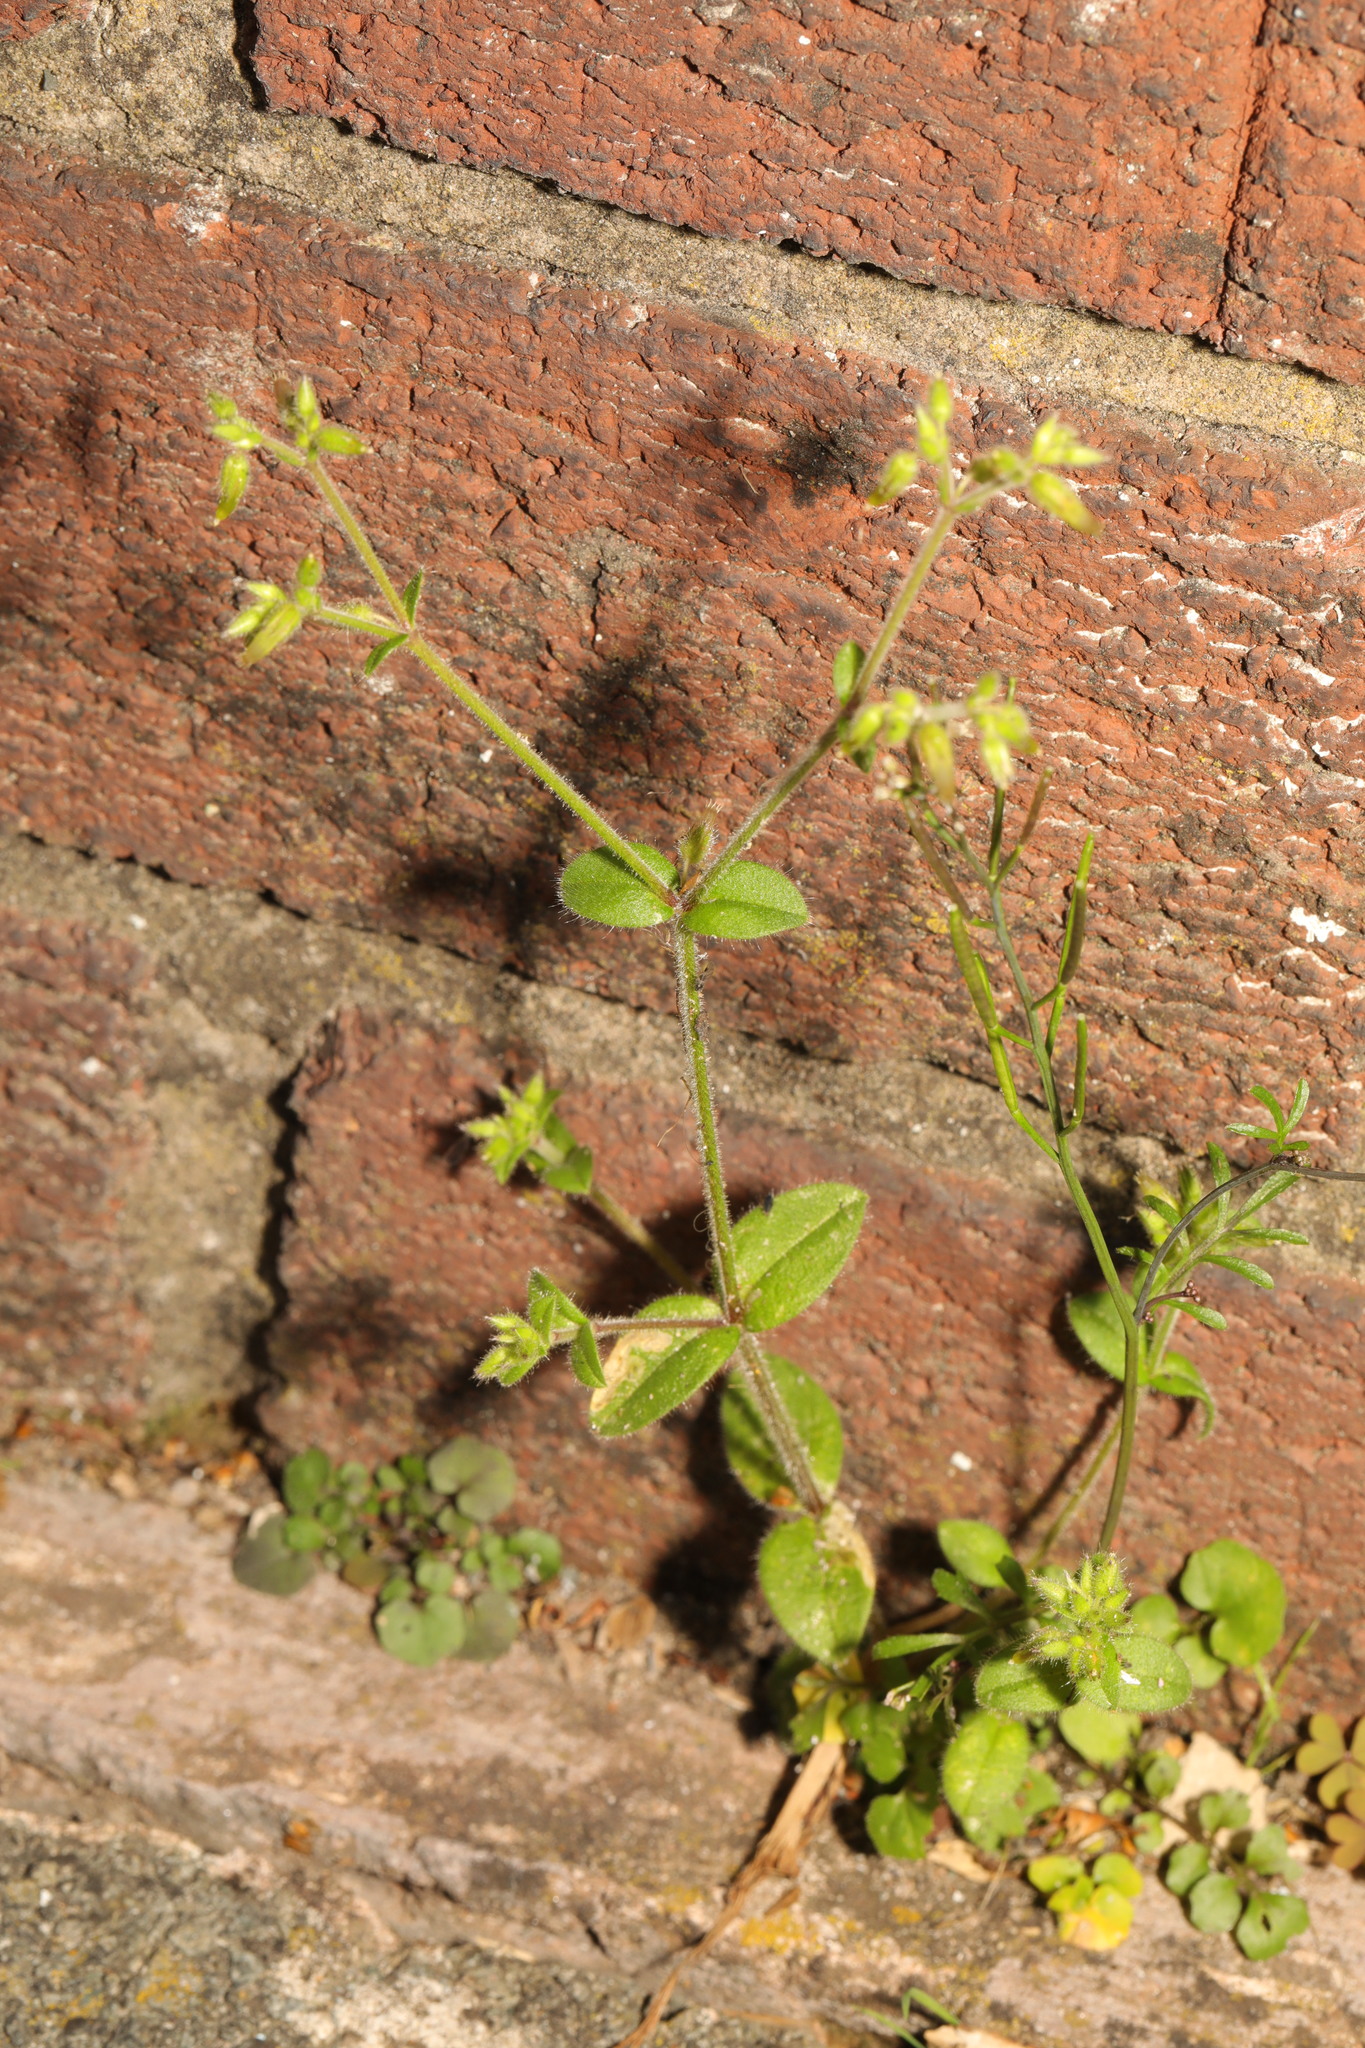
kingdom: Plantae
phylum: Tracheophyta
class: Magnoliopsida
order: Caryophyllales
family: Caryophyllaceae
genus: Cerastium
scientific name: Cerastium glomeratum
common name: Sticky chickweed
